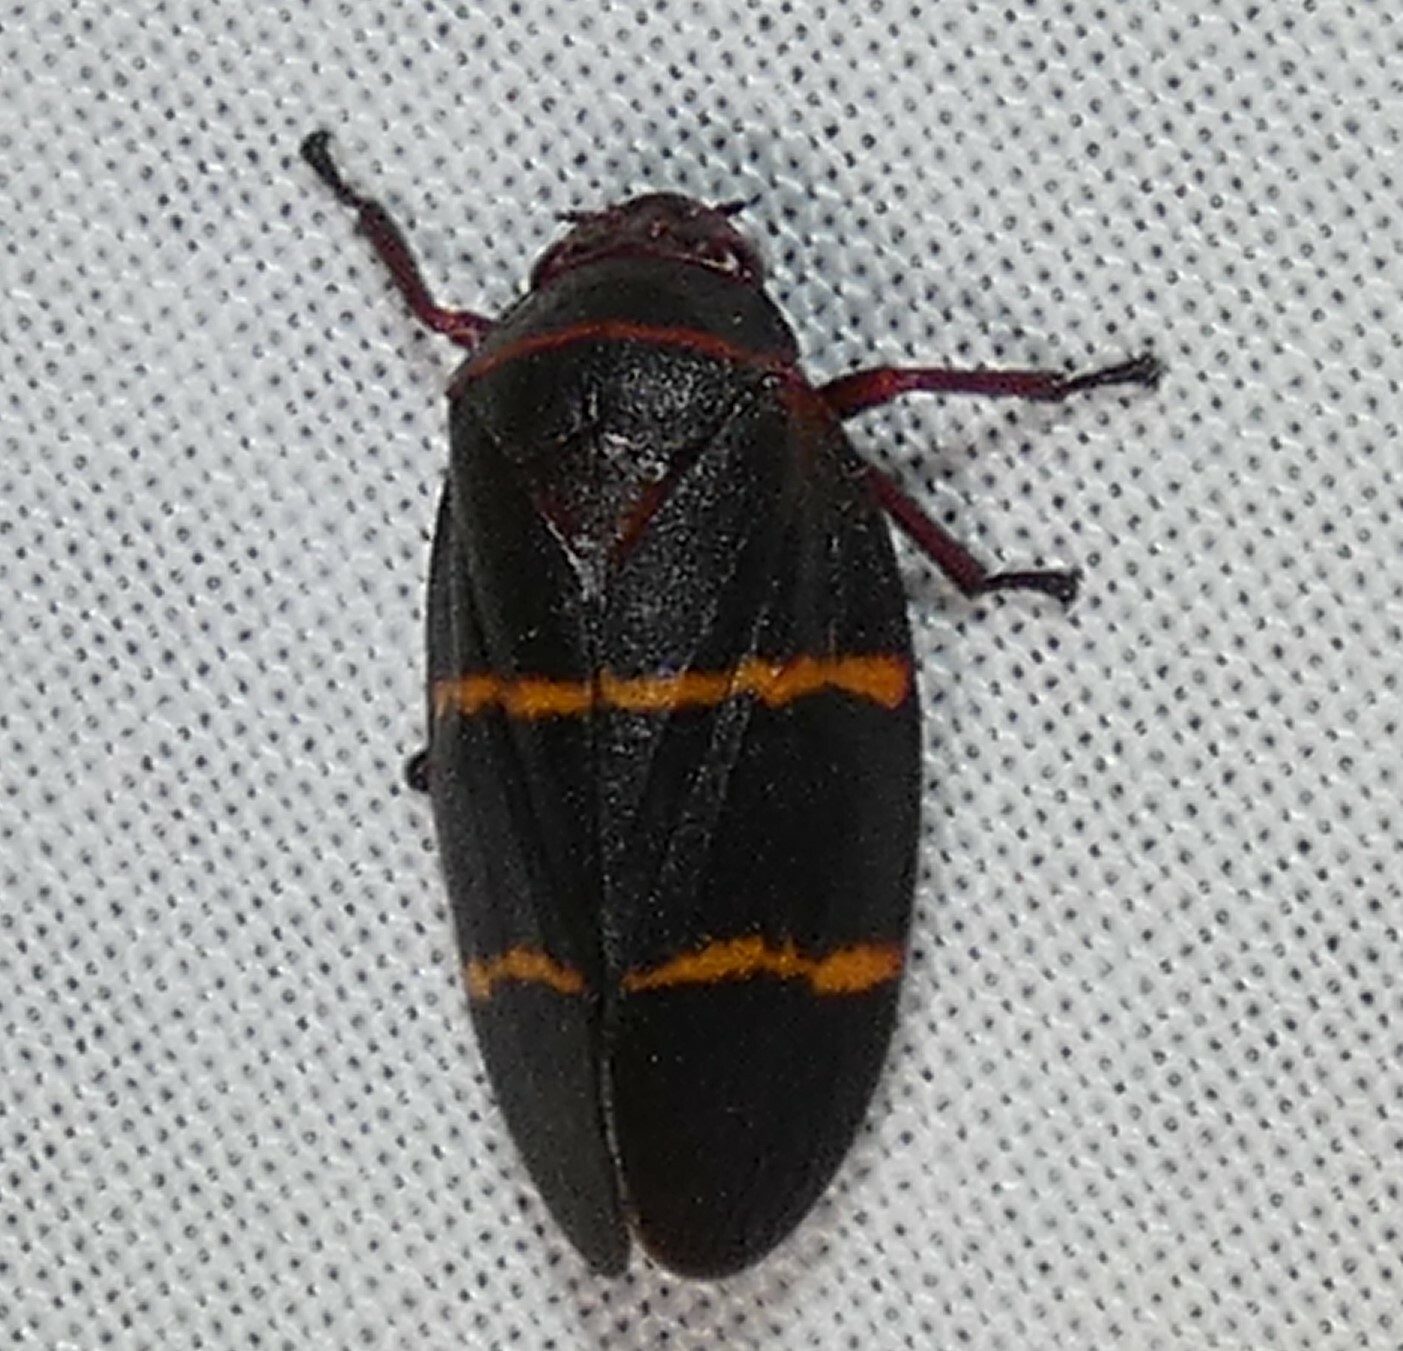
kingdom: Animalia
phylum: Arthropoda
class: Insecta
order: Hemiptera
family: Cercopidae
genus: Prosapia
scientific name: Prosapia bicincta
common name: Twolined spittlebug
